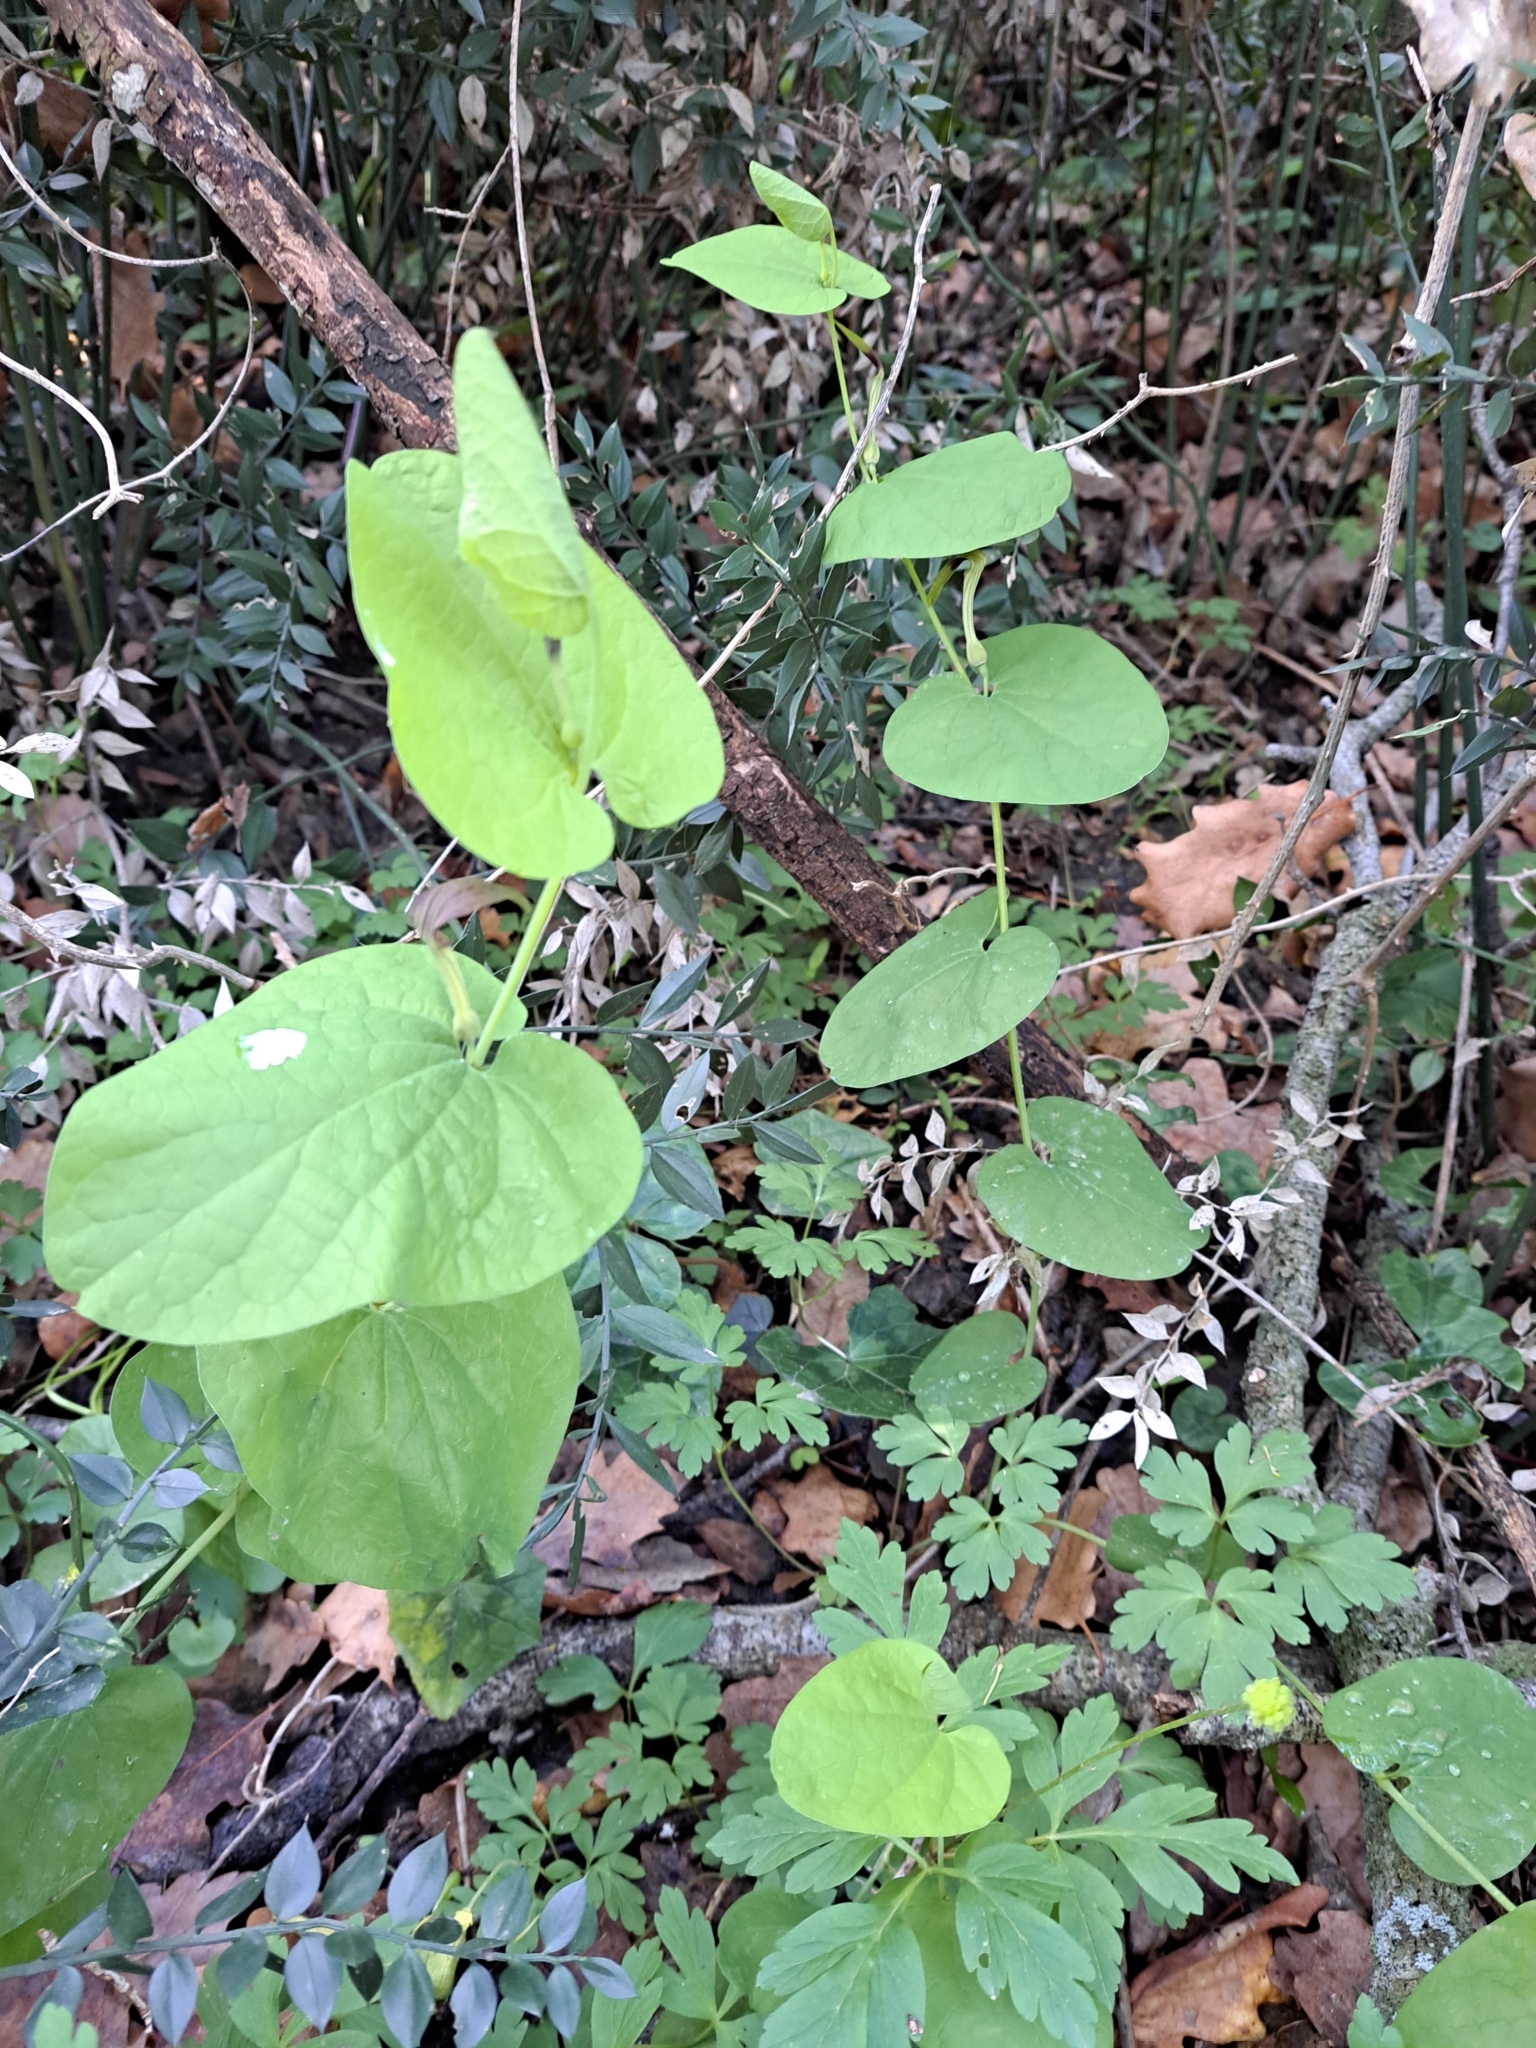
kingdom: Plantae
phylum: Tracheophyta
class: Magnoliopsida
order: Piperales
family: Aristolochiaceae
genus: Aristolochia
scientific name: Aristolochia rotunda
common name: Smearwort
